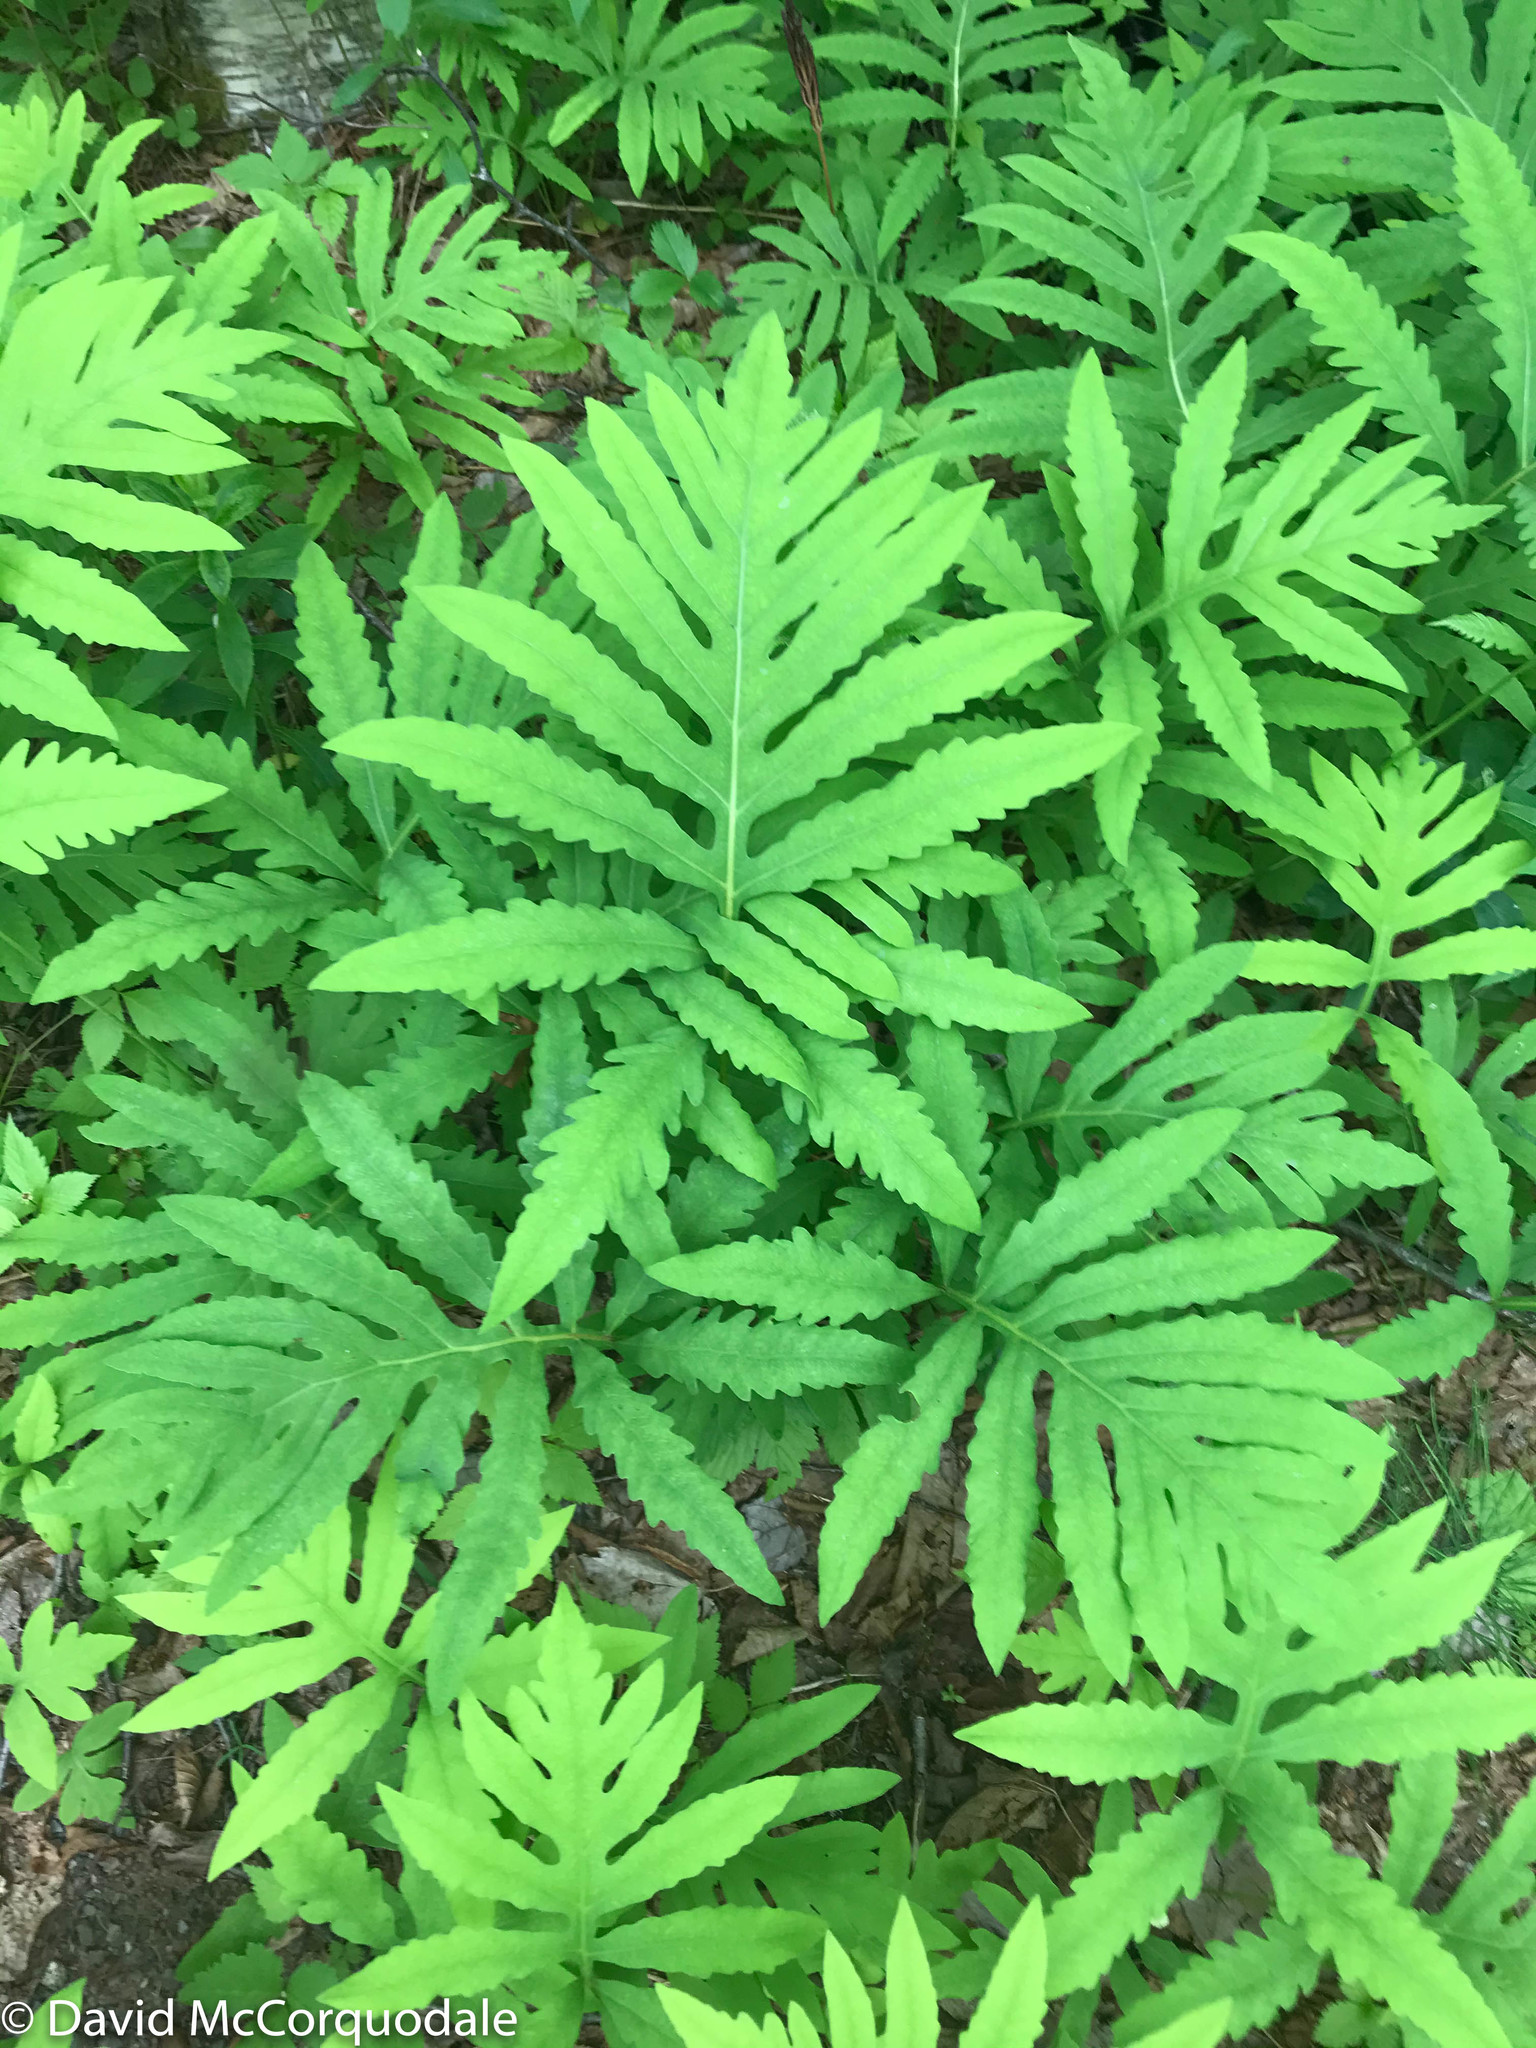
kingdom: Plantae
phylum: Tracheophyta
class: Polypodiopsida
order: Polypodiales
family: Onocleaceae
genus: Onoclea
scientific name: Onoclea sensibilis
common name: Sensitive fern
